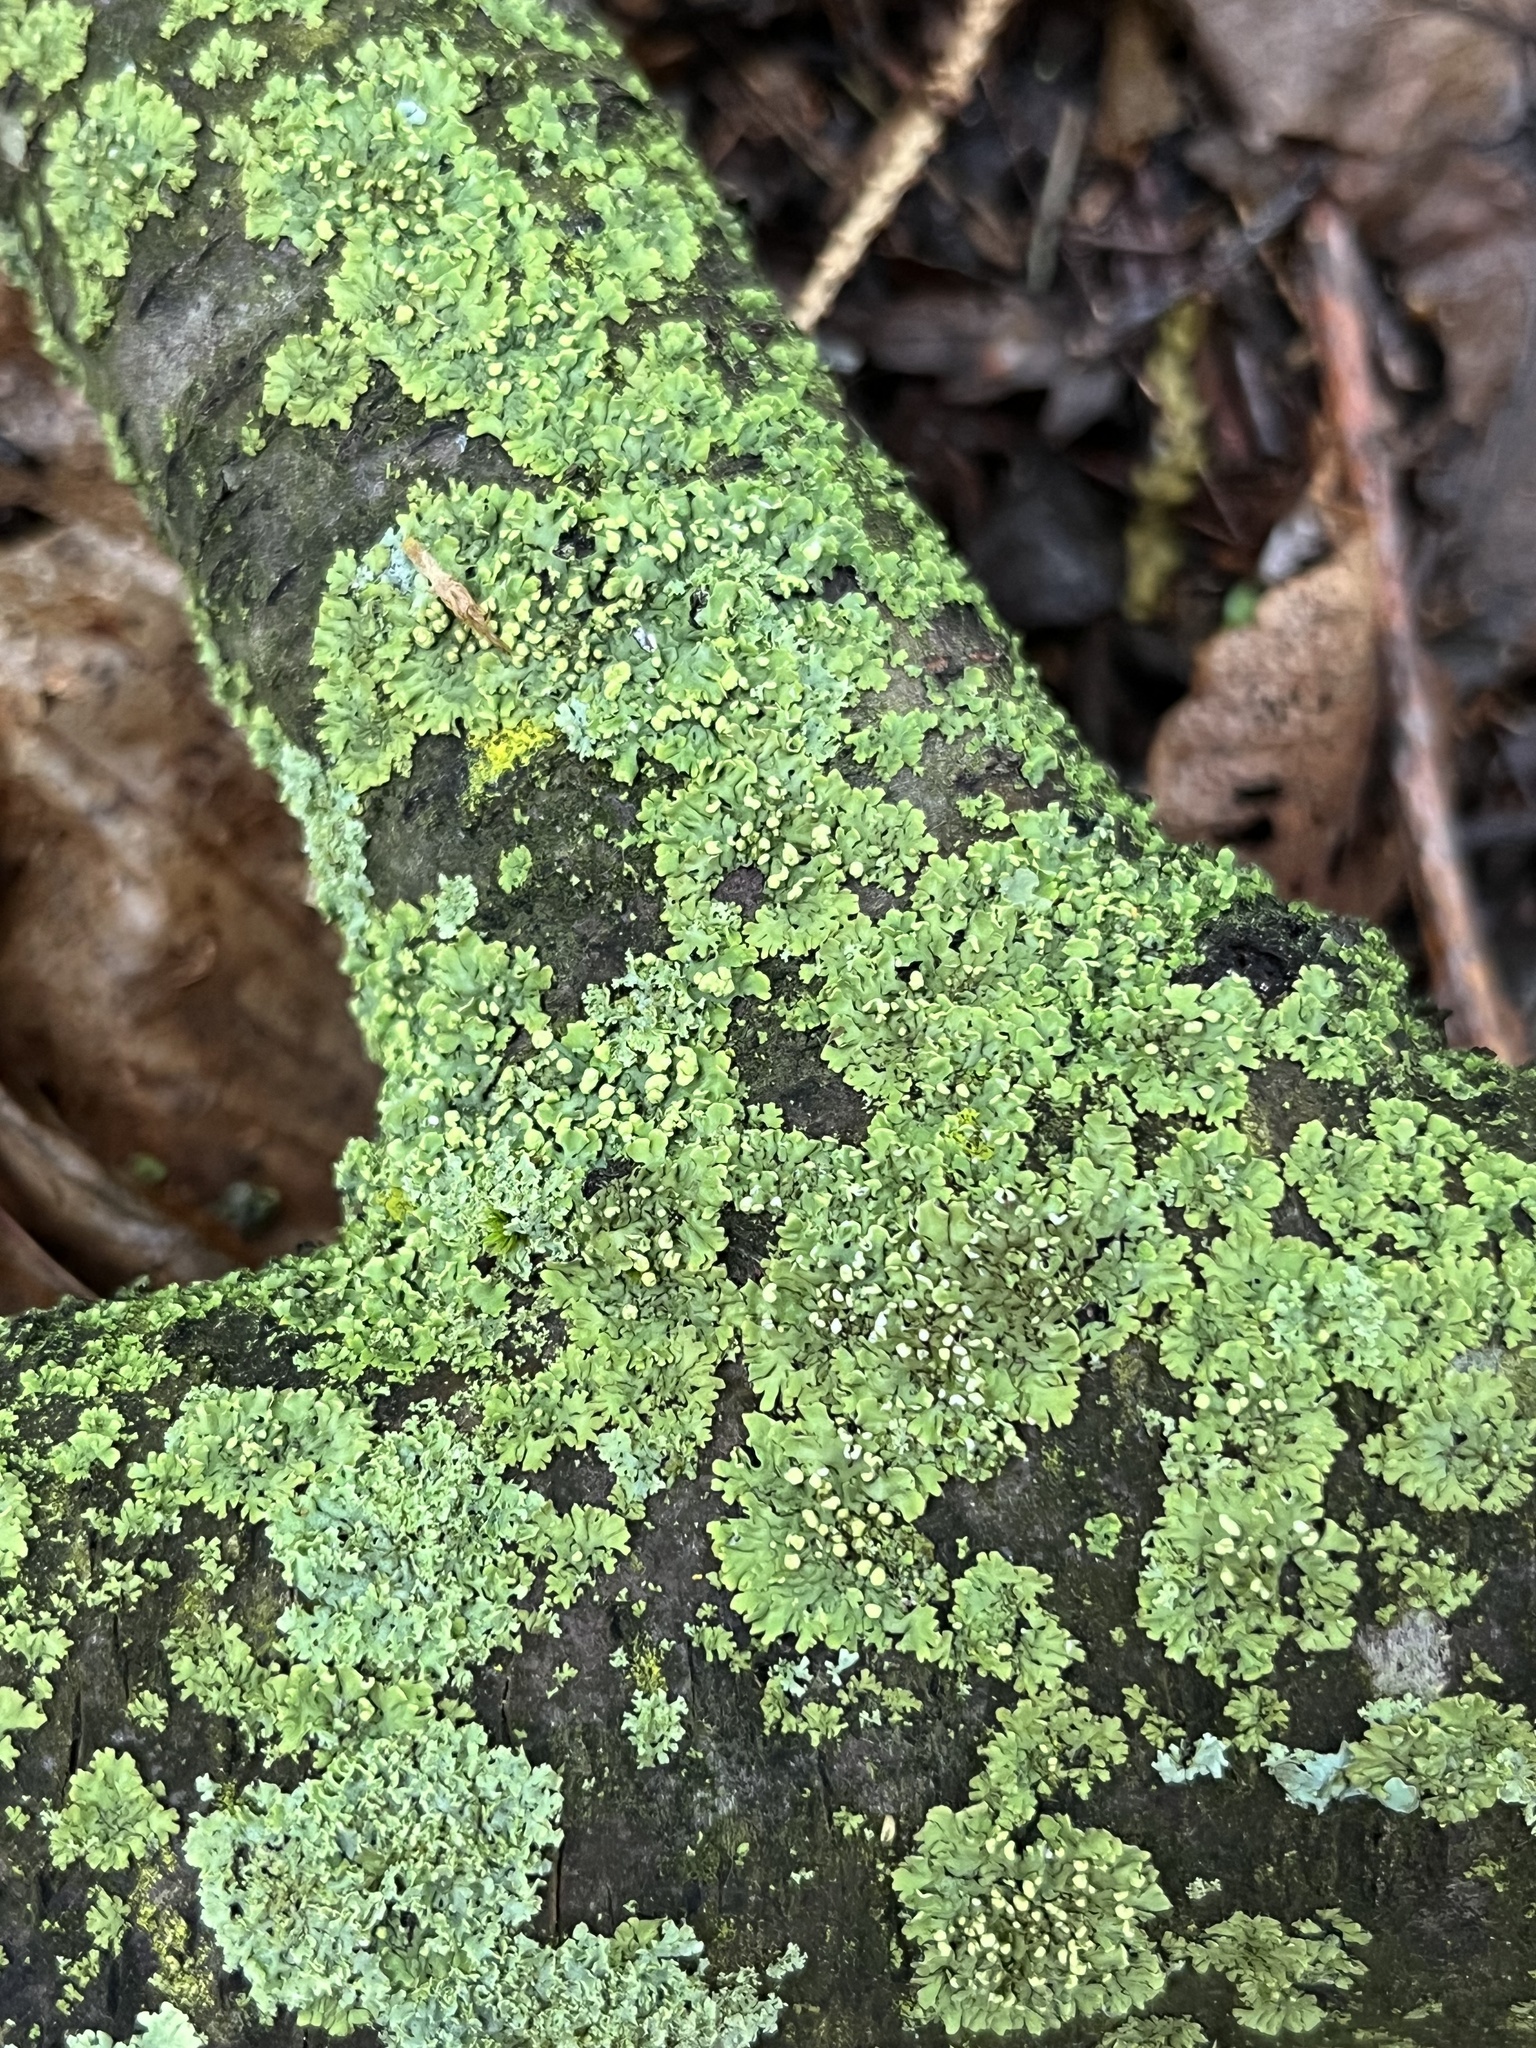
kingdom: Fungi
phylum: Ascomycota
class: Lecanoromycetes
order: Caliciales
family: Physciaceae
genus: Phaeophyscia
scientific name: Phaeophyscia pusilloides
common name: Pom-pom shadow lichen
